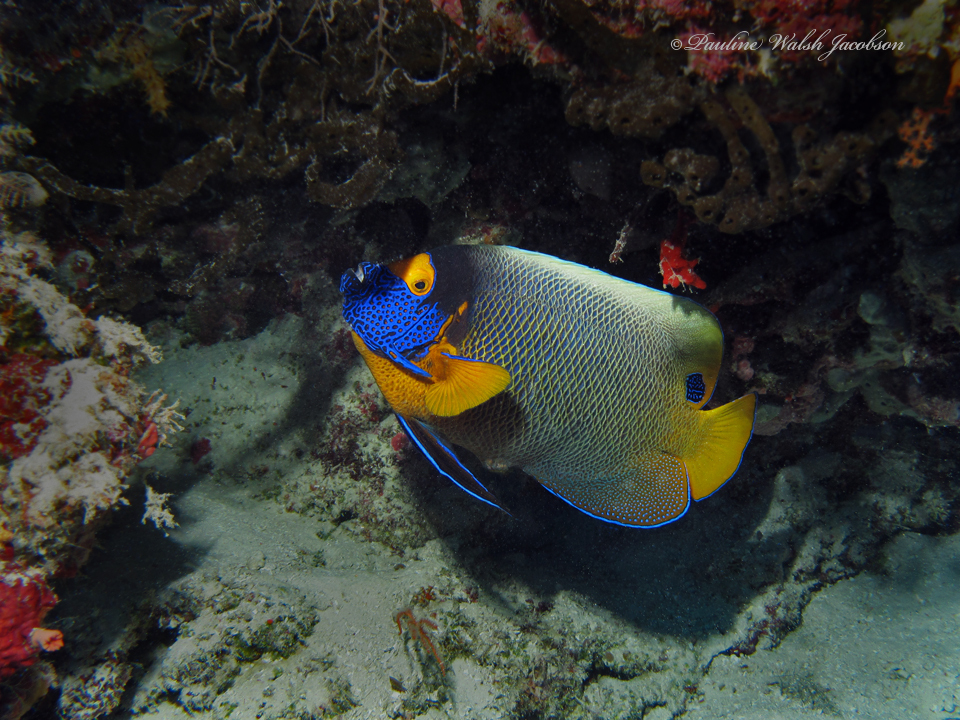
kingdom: Animalia
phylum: Chordata
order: Perciformes
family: Pomacanthidae
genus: Pomacanthus
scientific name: Pomacanthus xanthometopon
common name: Yellow-faced angelfish
